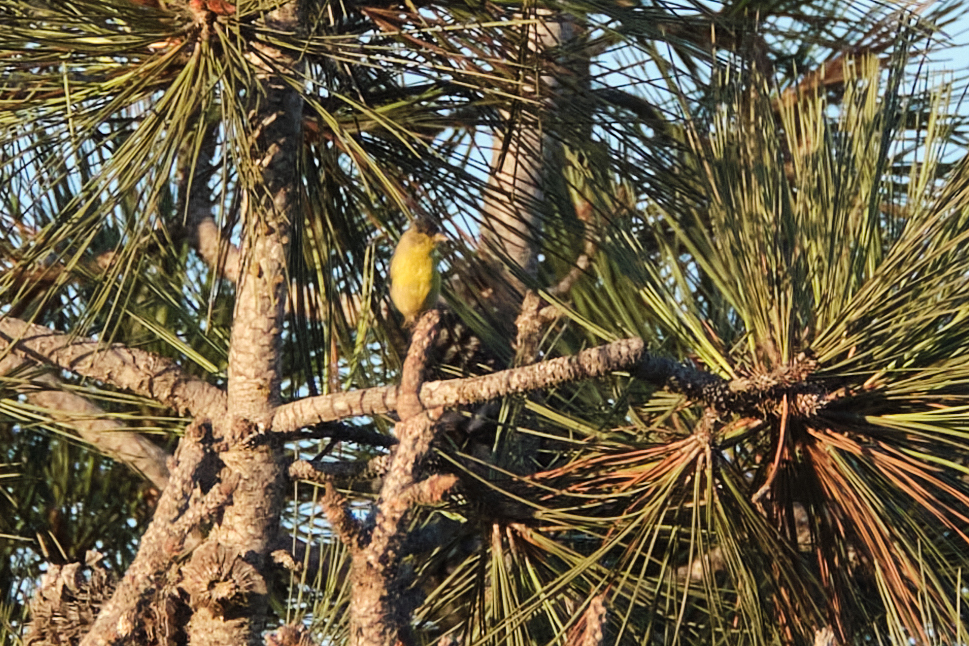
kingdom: Animalia
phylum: Chordata
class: Aves
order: Passeriformes
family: Fringillidae
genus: Spinus
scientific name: Spinus psaltria
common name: Lesser goldfinch
